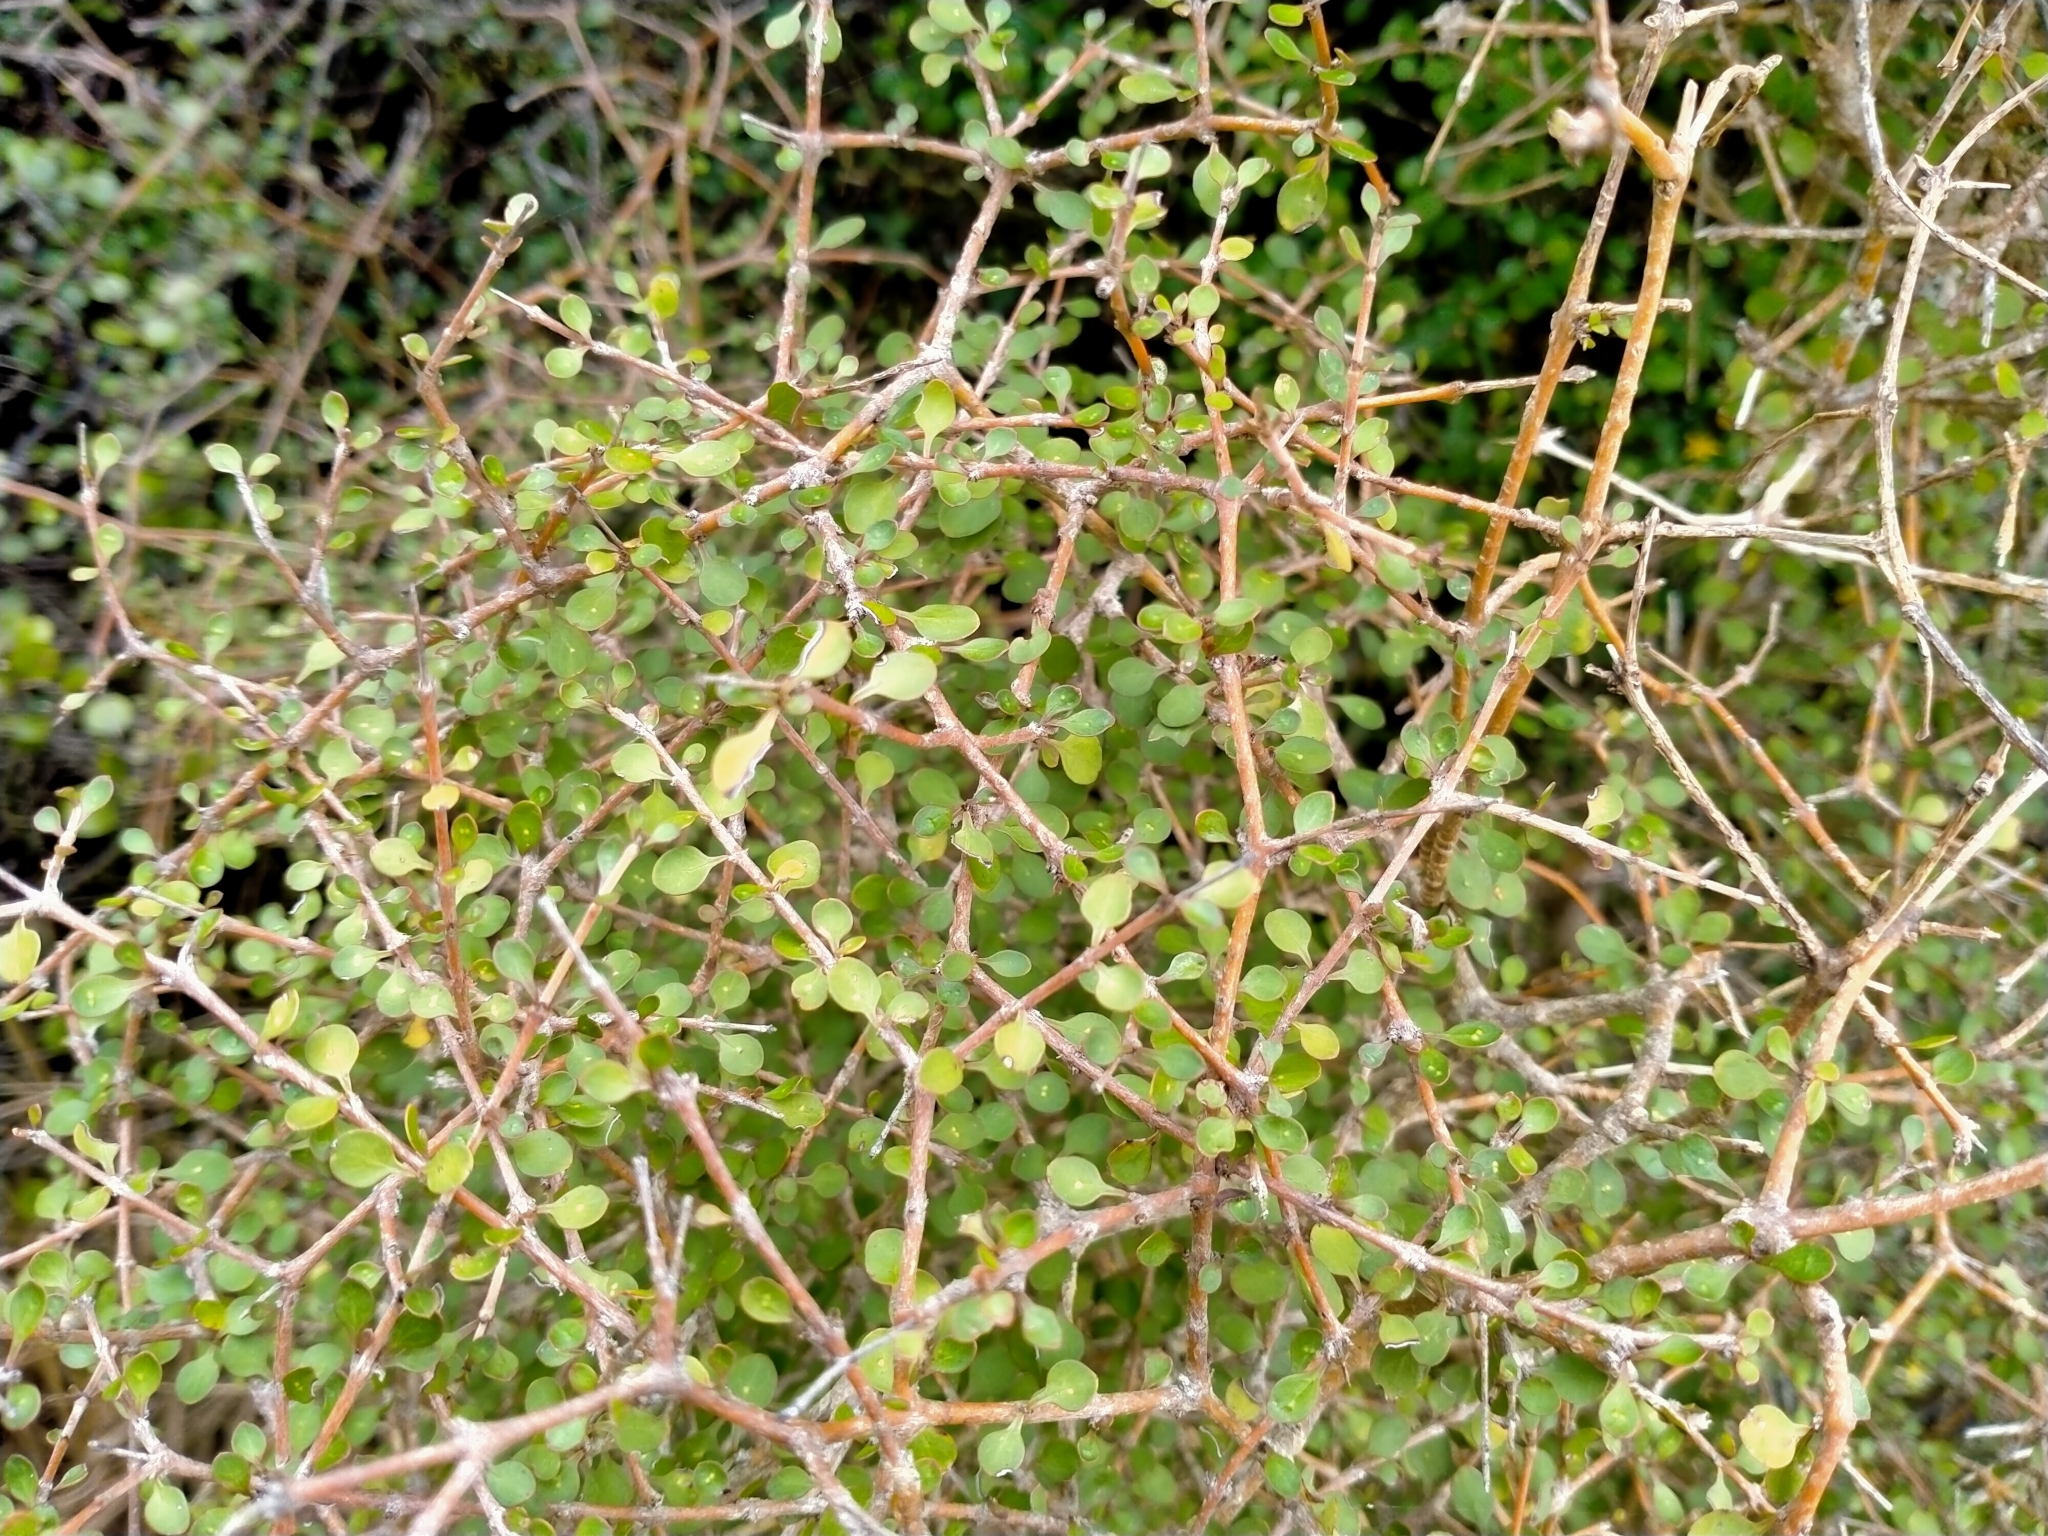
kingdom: Plantae
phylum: Tracheophyta
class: Magnoliopsida
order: Gentianales
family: Rubiaceae
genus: Coprosma
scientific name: Coprosma virescens
